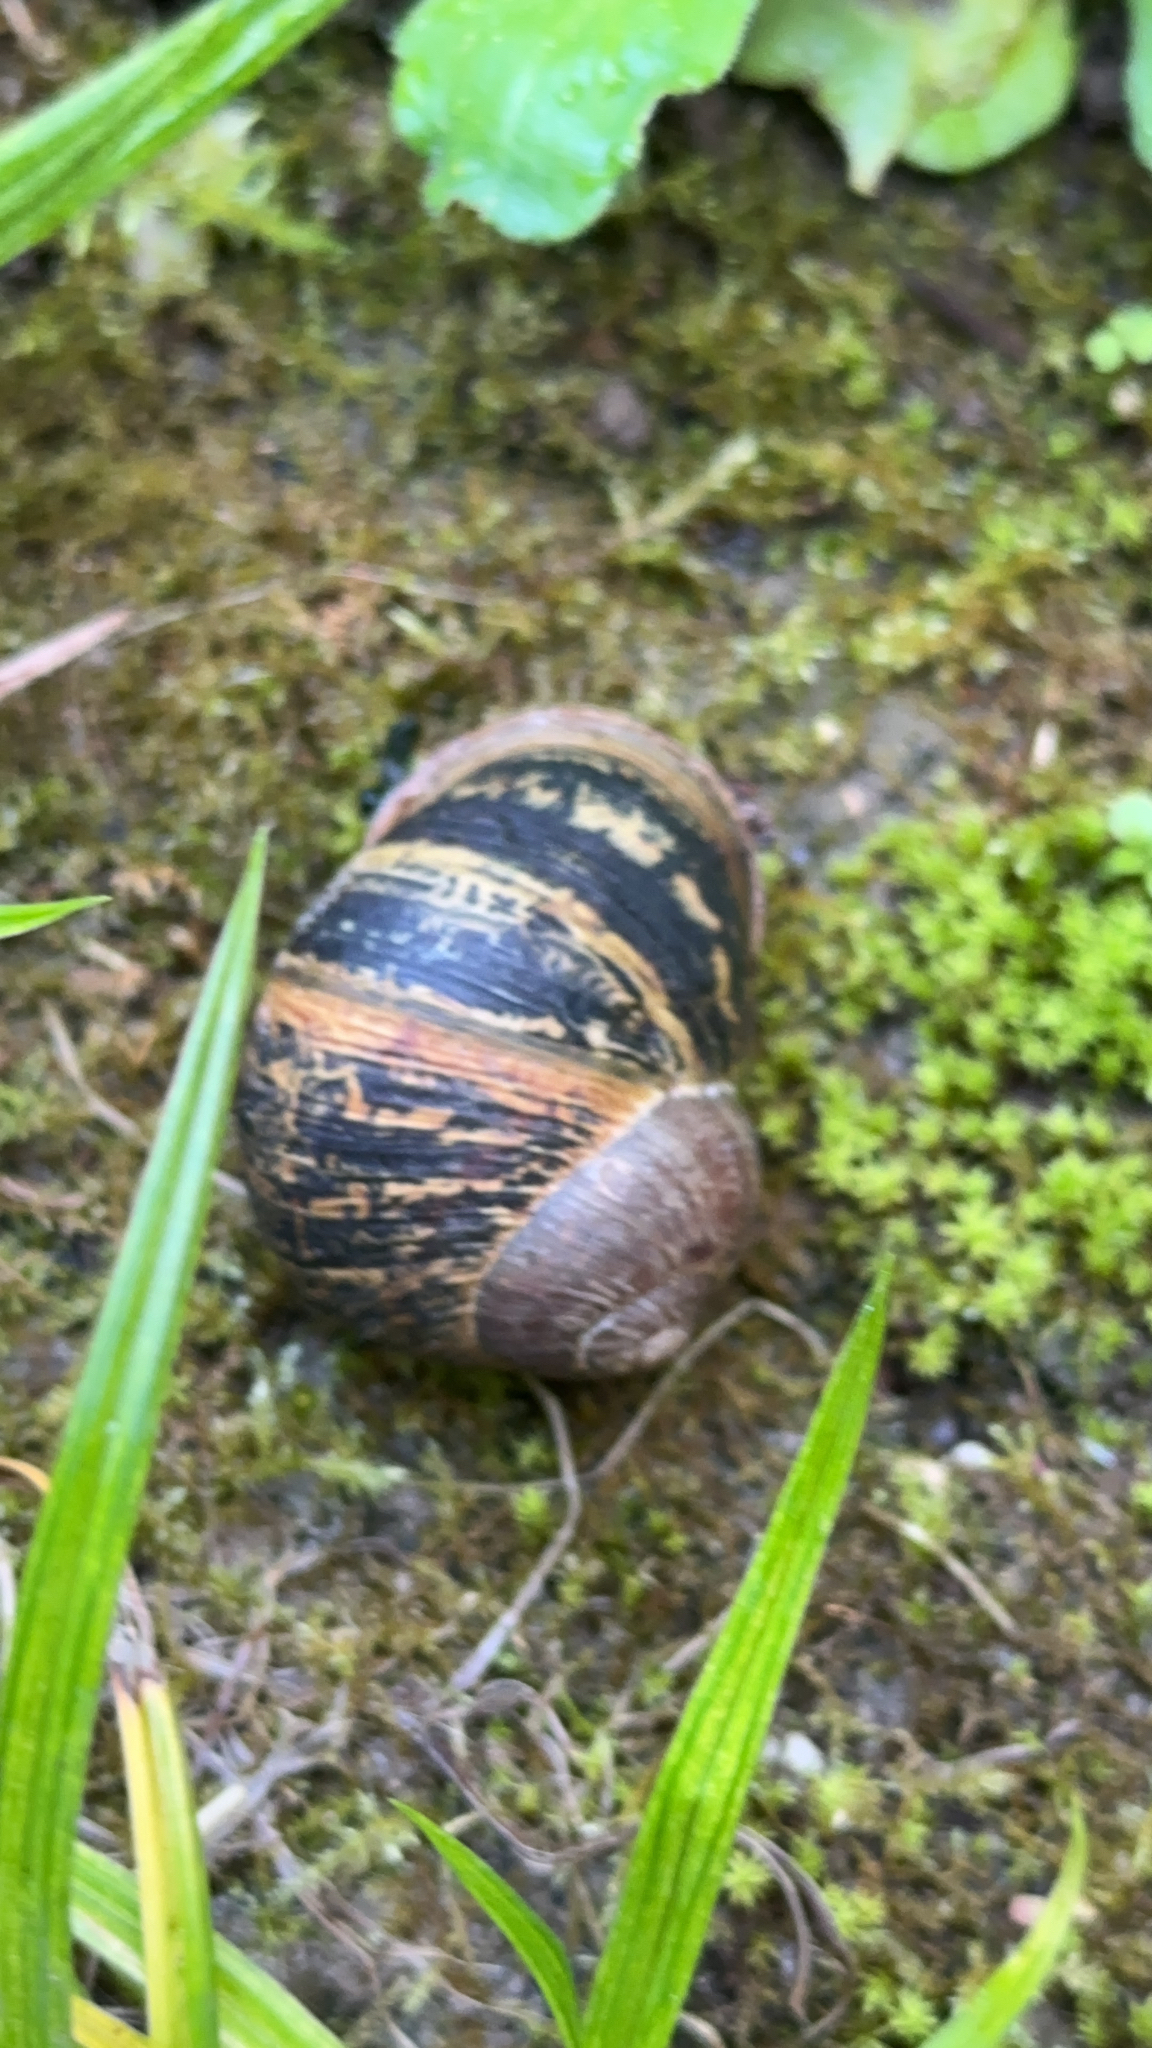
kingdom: Animalia
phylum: Mollusca
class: Gastropoda
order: Stylommatophora
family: Helicidae
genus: Cornu
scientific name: Cornu aspersum
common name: Brown garden snail
